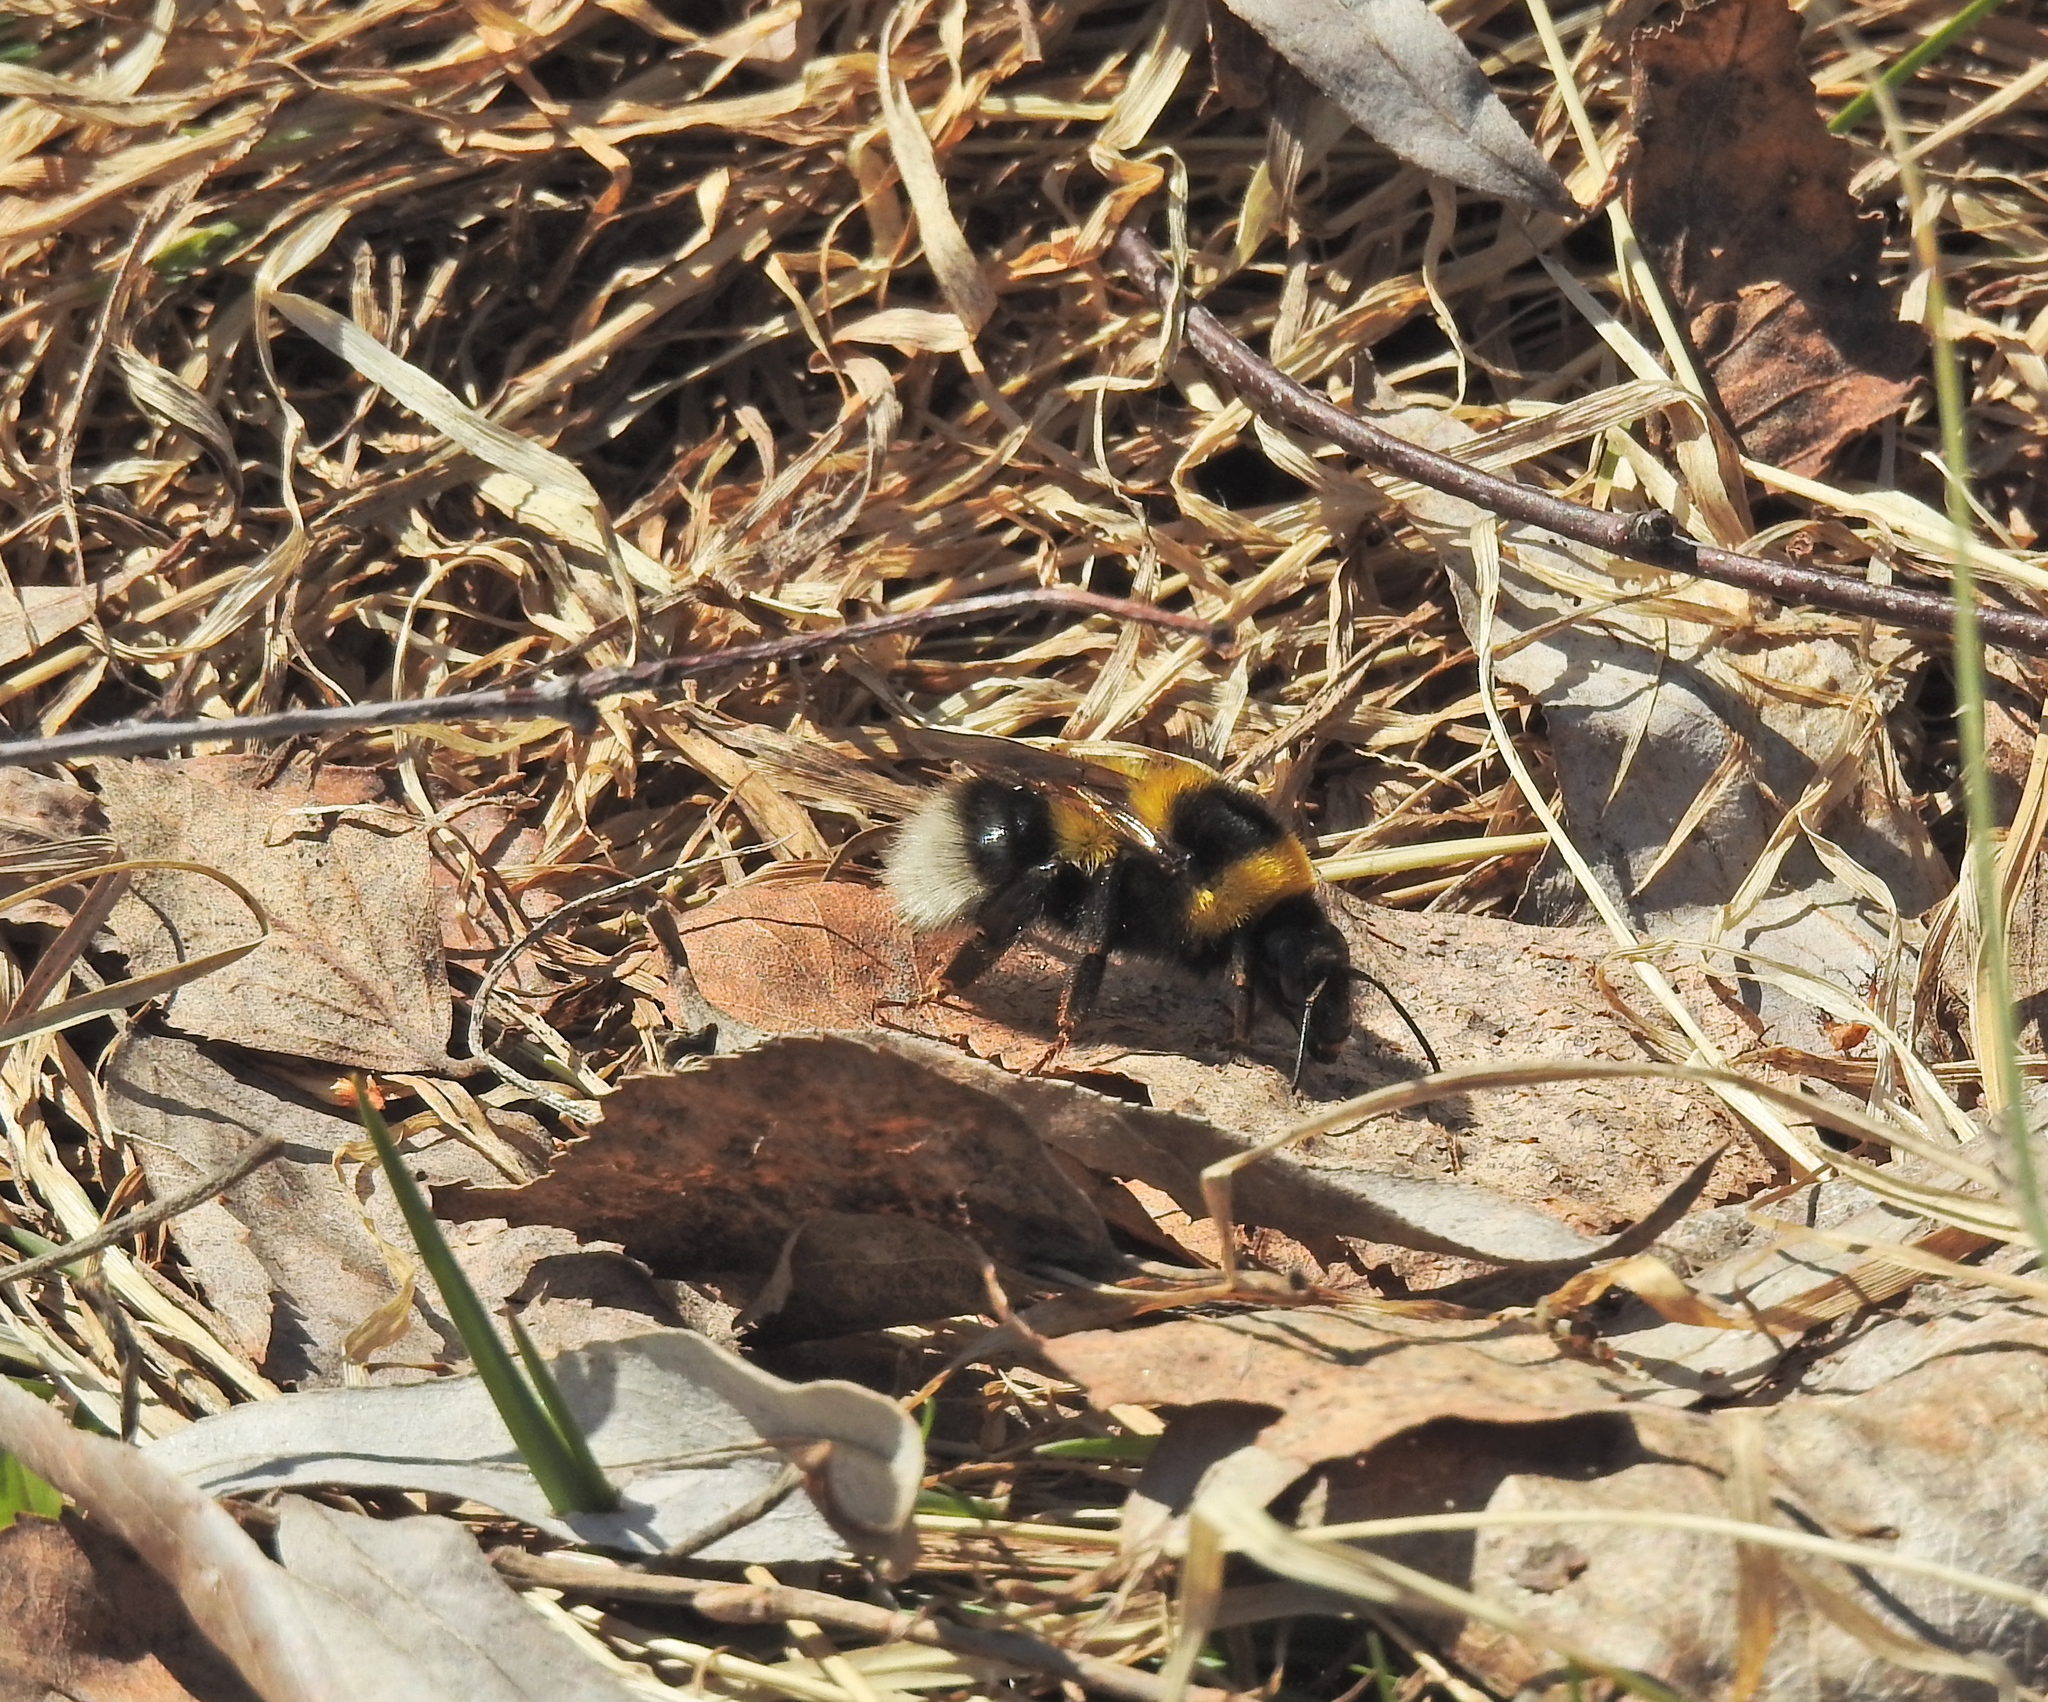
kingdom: Animalia
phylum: Arthropoda
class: Insecta
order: Hymenoptera
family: Apidae
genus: Bombus
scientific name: Bombus hortorum
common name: Garden bumblebee
